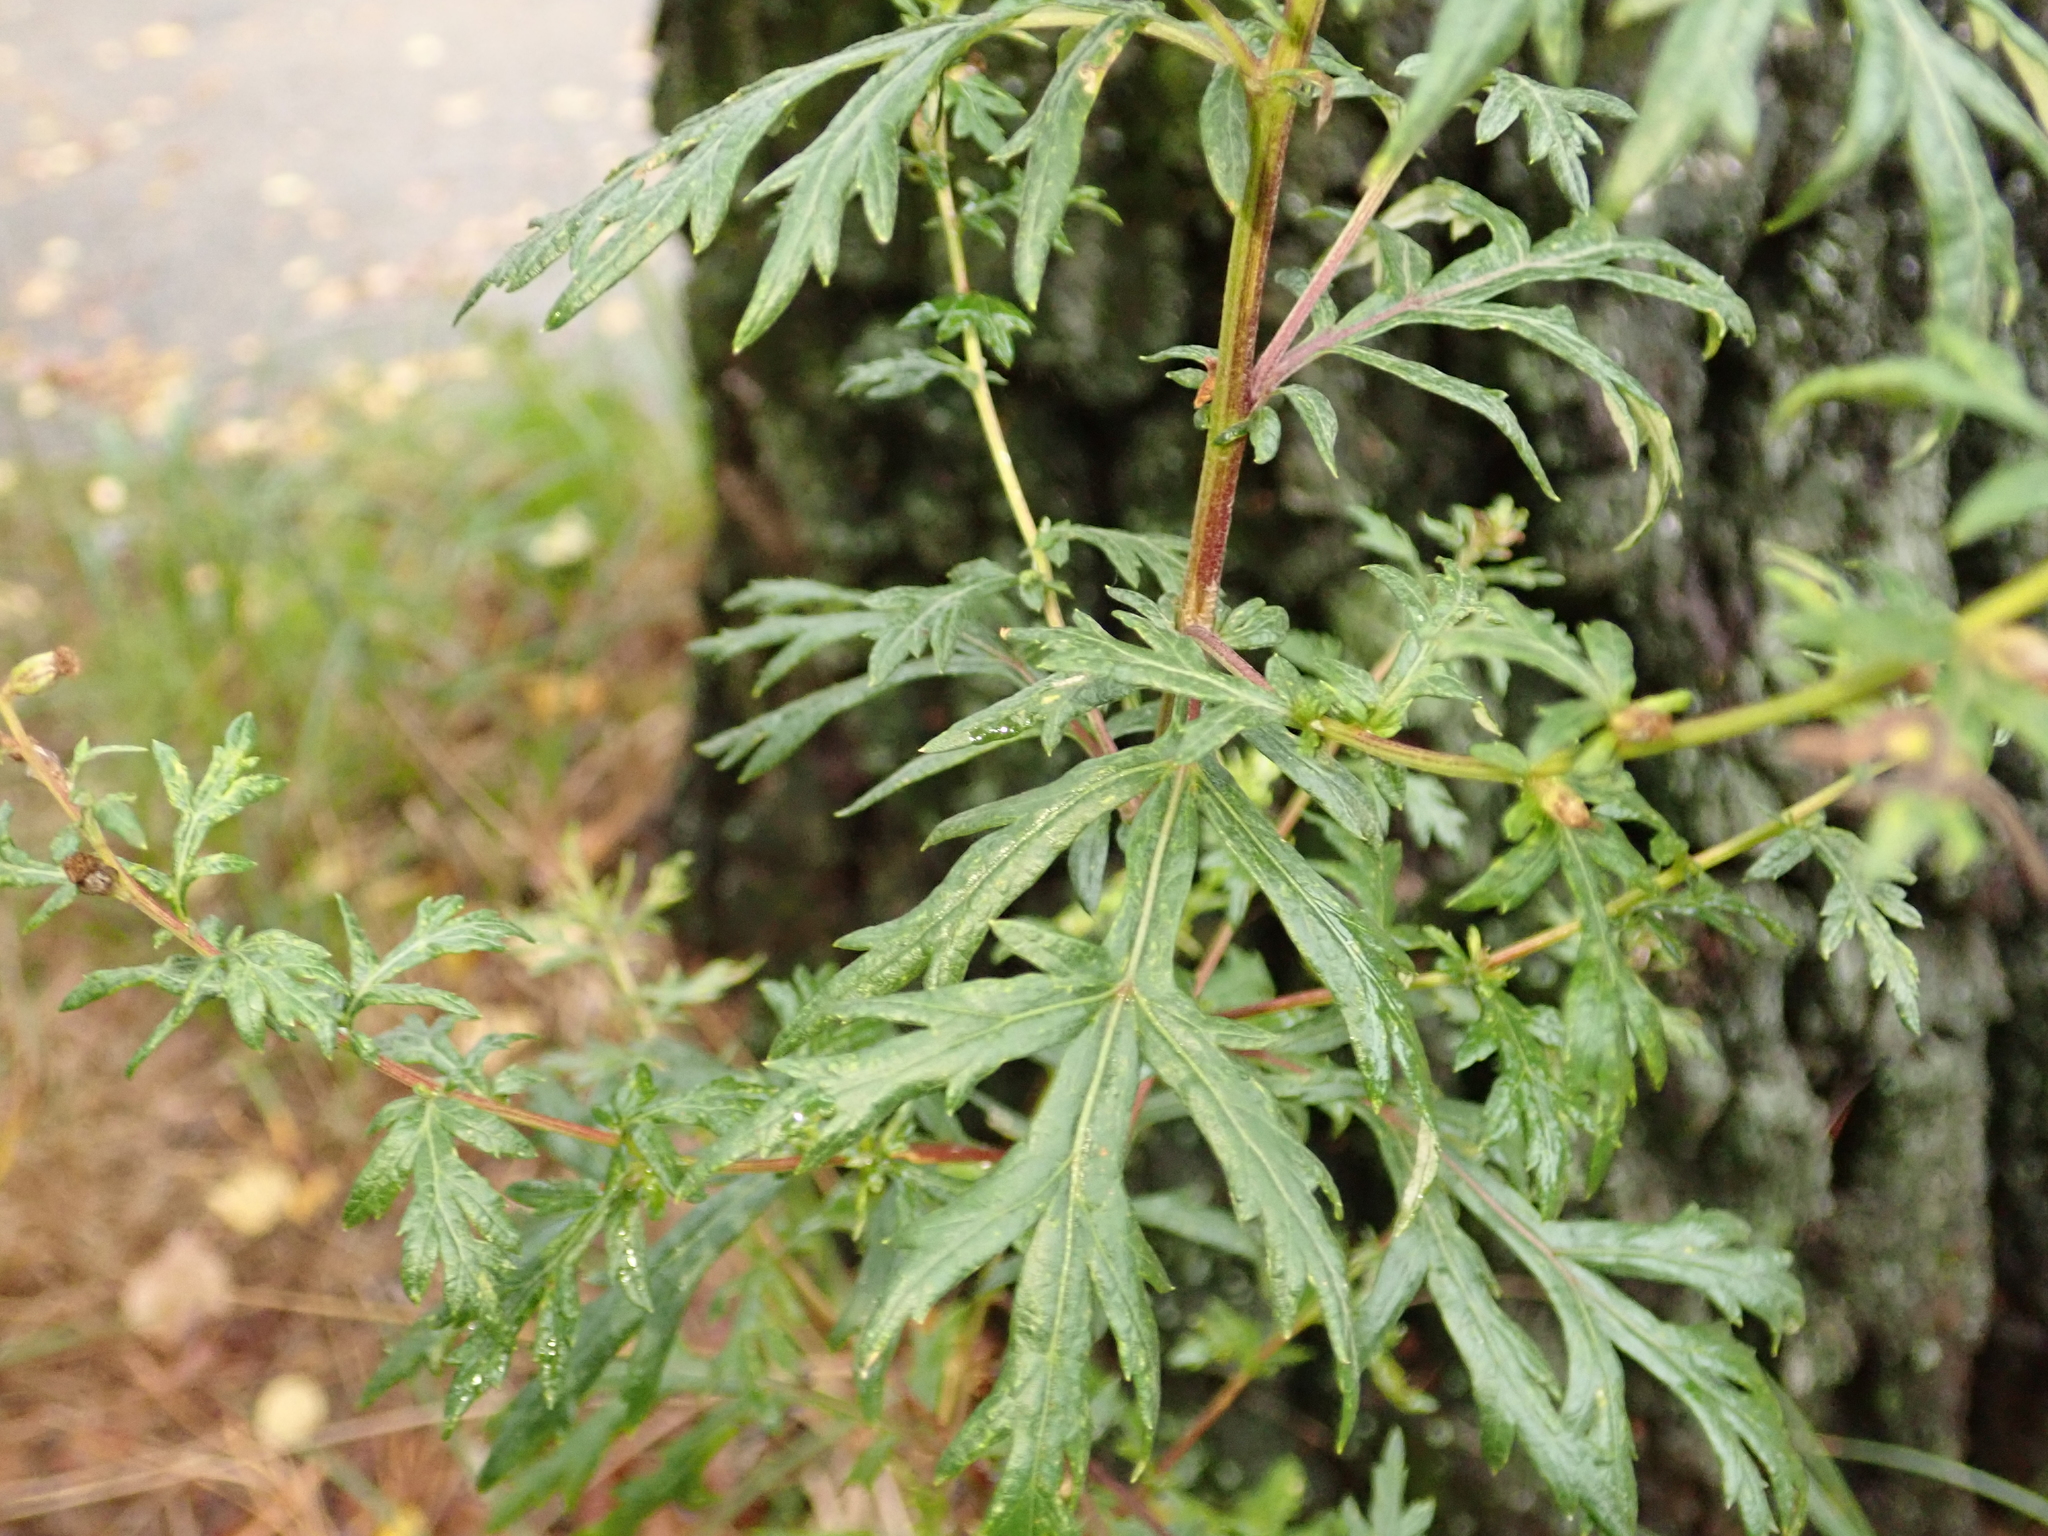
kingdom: Plantae
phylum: Tracheophyta
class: Magnoliopsida
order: Asterales
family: Asteraceae
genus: Artemisia
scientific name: Artemisia vulgaris
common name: Mugwort
